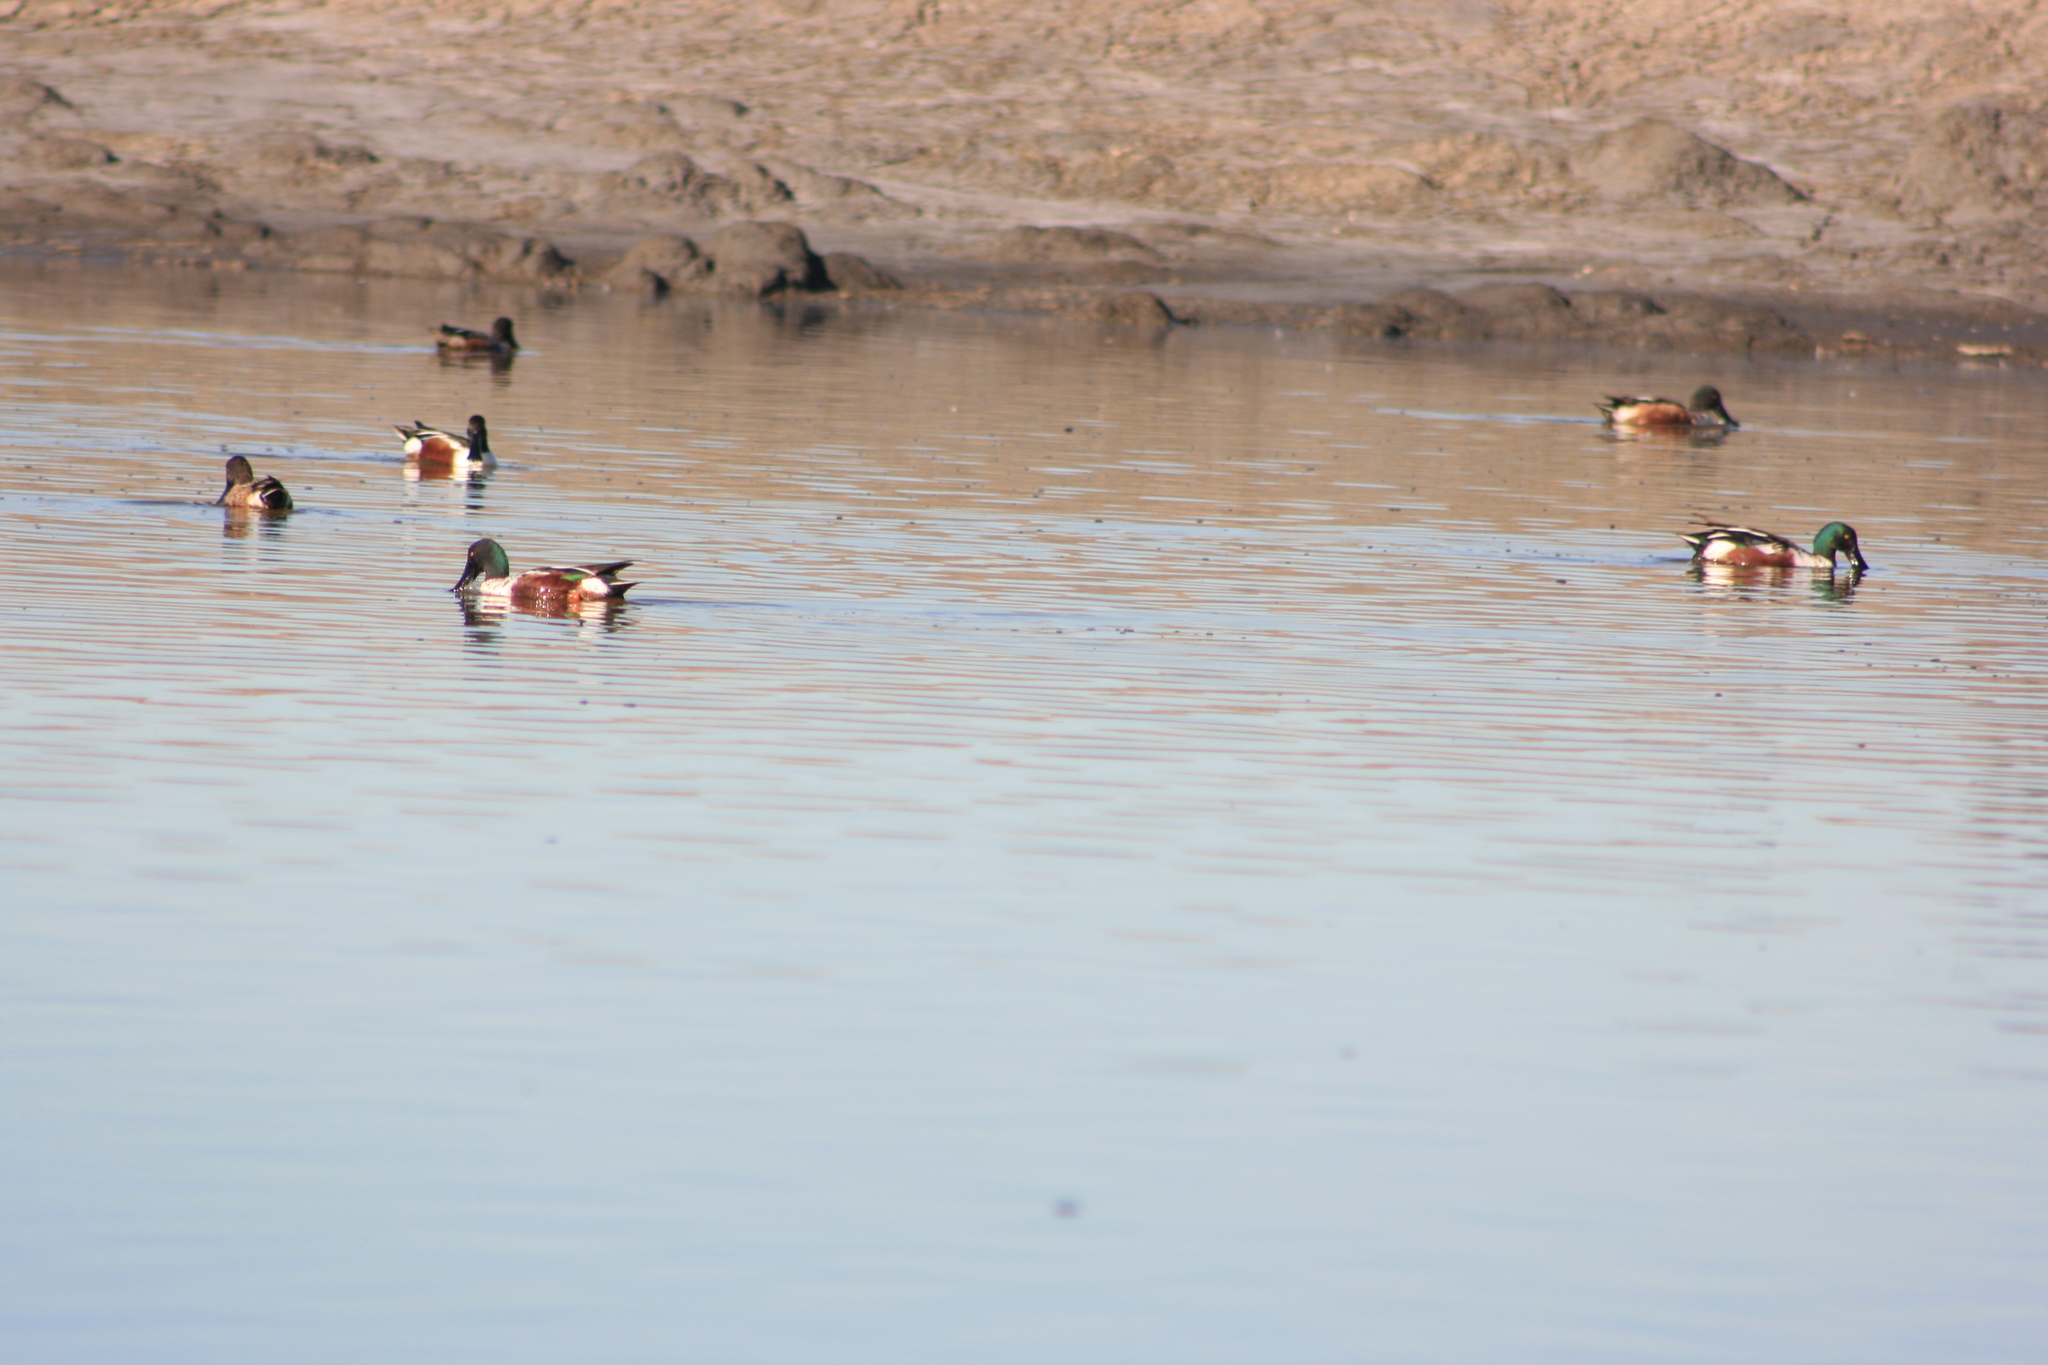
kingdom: Animalia
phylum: Chordata
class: Aves
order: Anseriformes
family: Anatidae
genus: Spatula
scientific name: Spatula clypeata
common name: Northern shoveler
